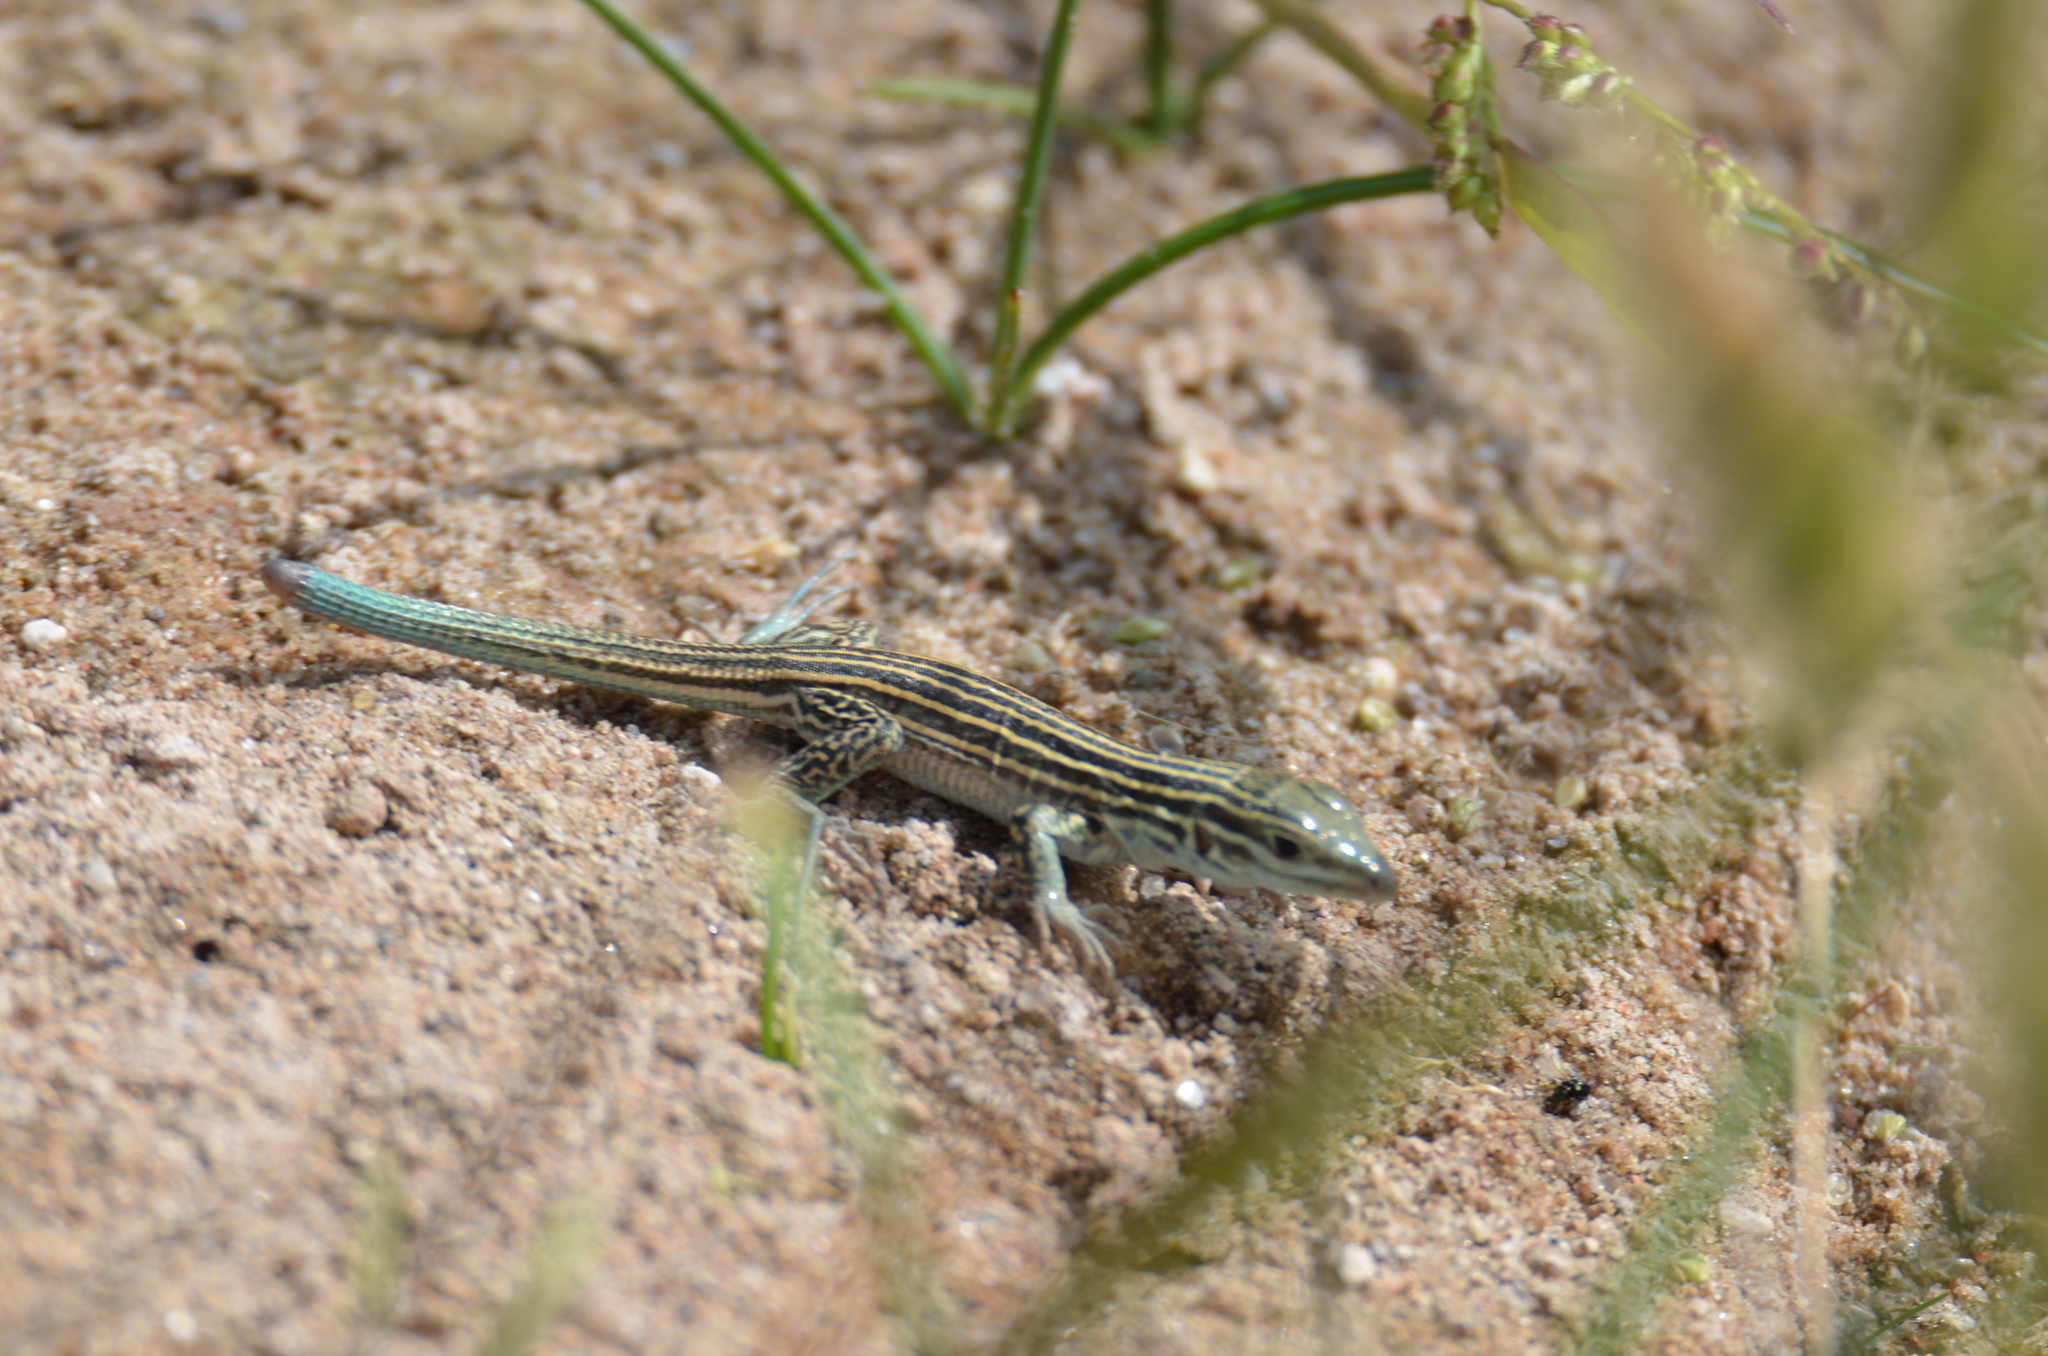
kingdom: Animalia
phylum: Chordata
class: Squamata
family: Teiidae
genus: Aspidoscelis
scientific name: Aspidoscelis neomexicanus
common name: New mexico whiptail
